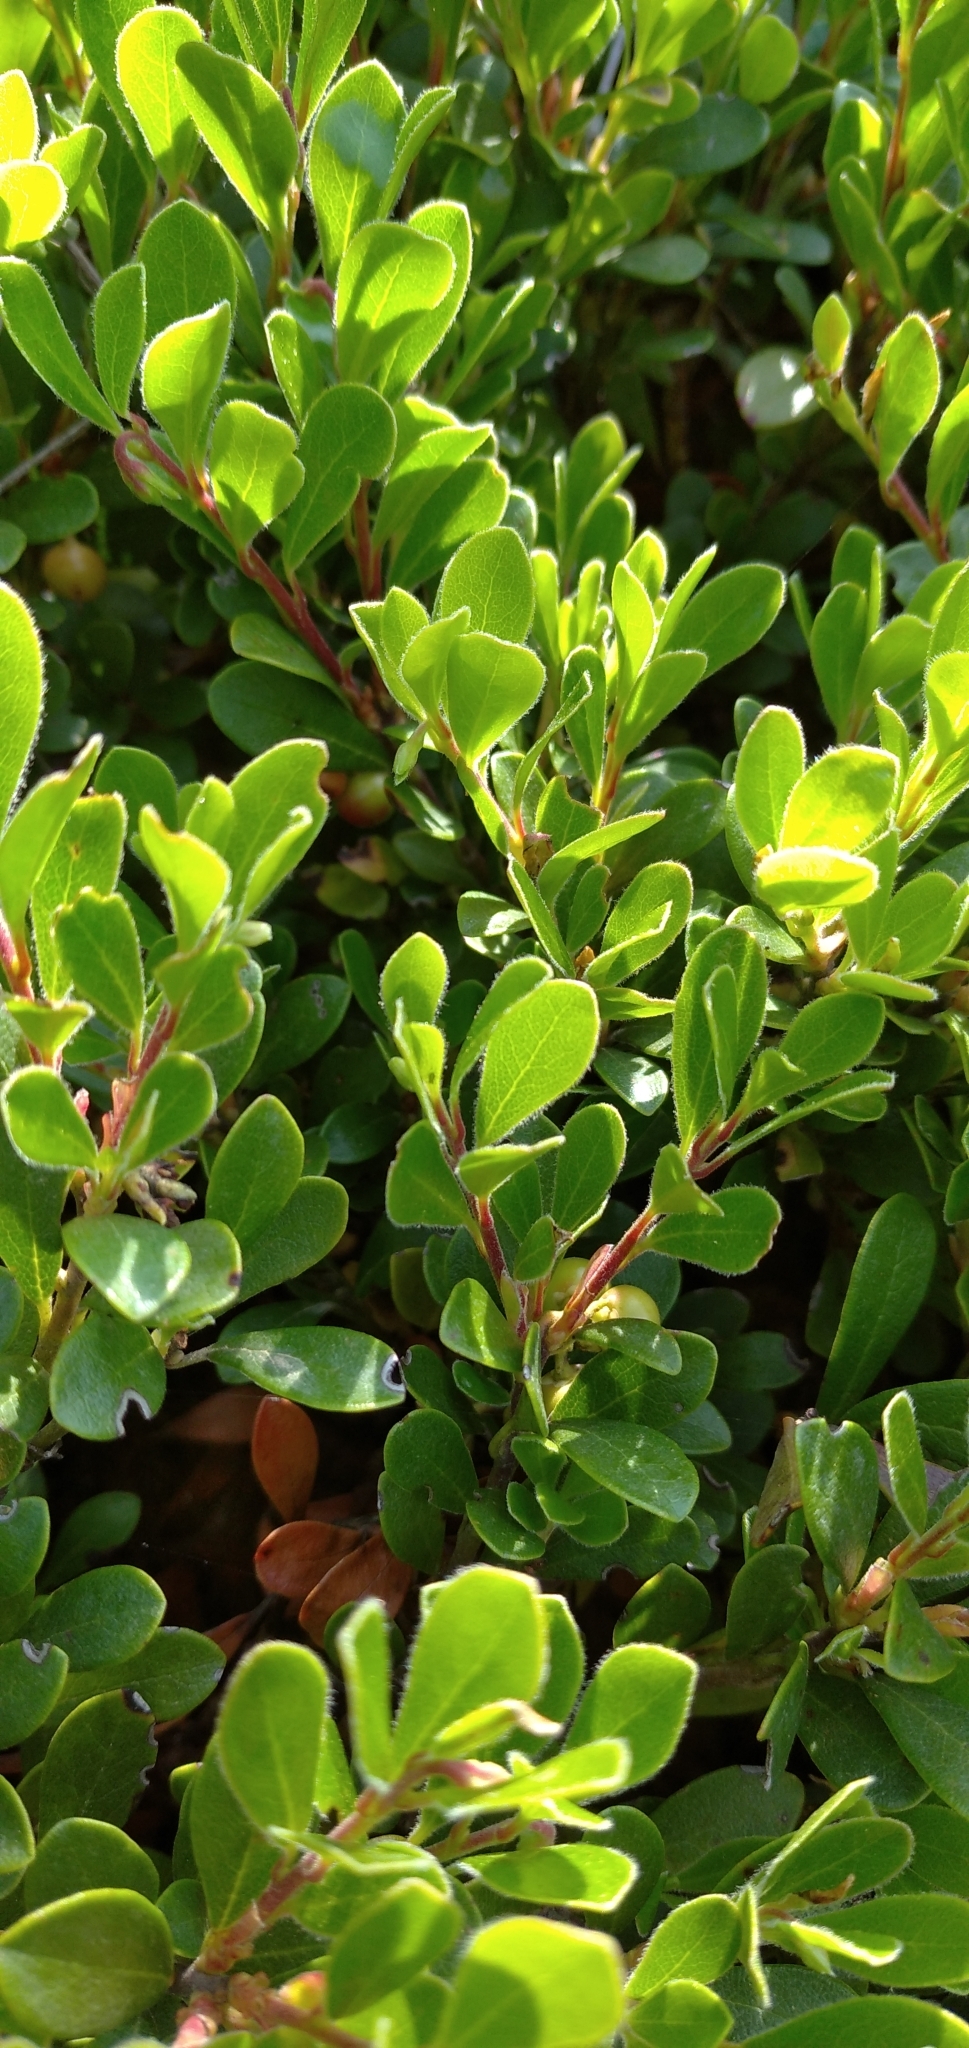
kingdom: Plantae
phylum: Tracheophyta
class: Magnoliopsida
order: Ericales
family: Ericaceae
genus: Arctostaphylos
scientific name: Arctostaphylos uva-ursi
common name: Bearberry
